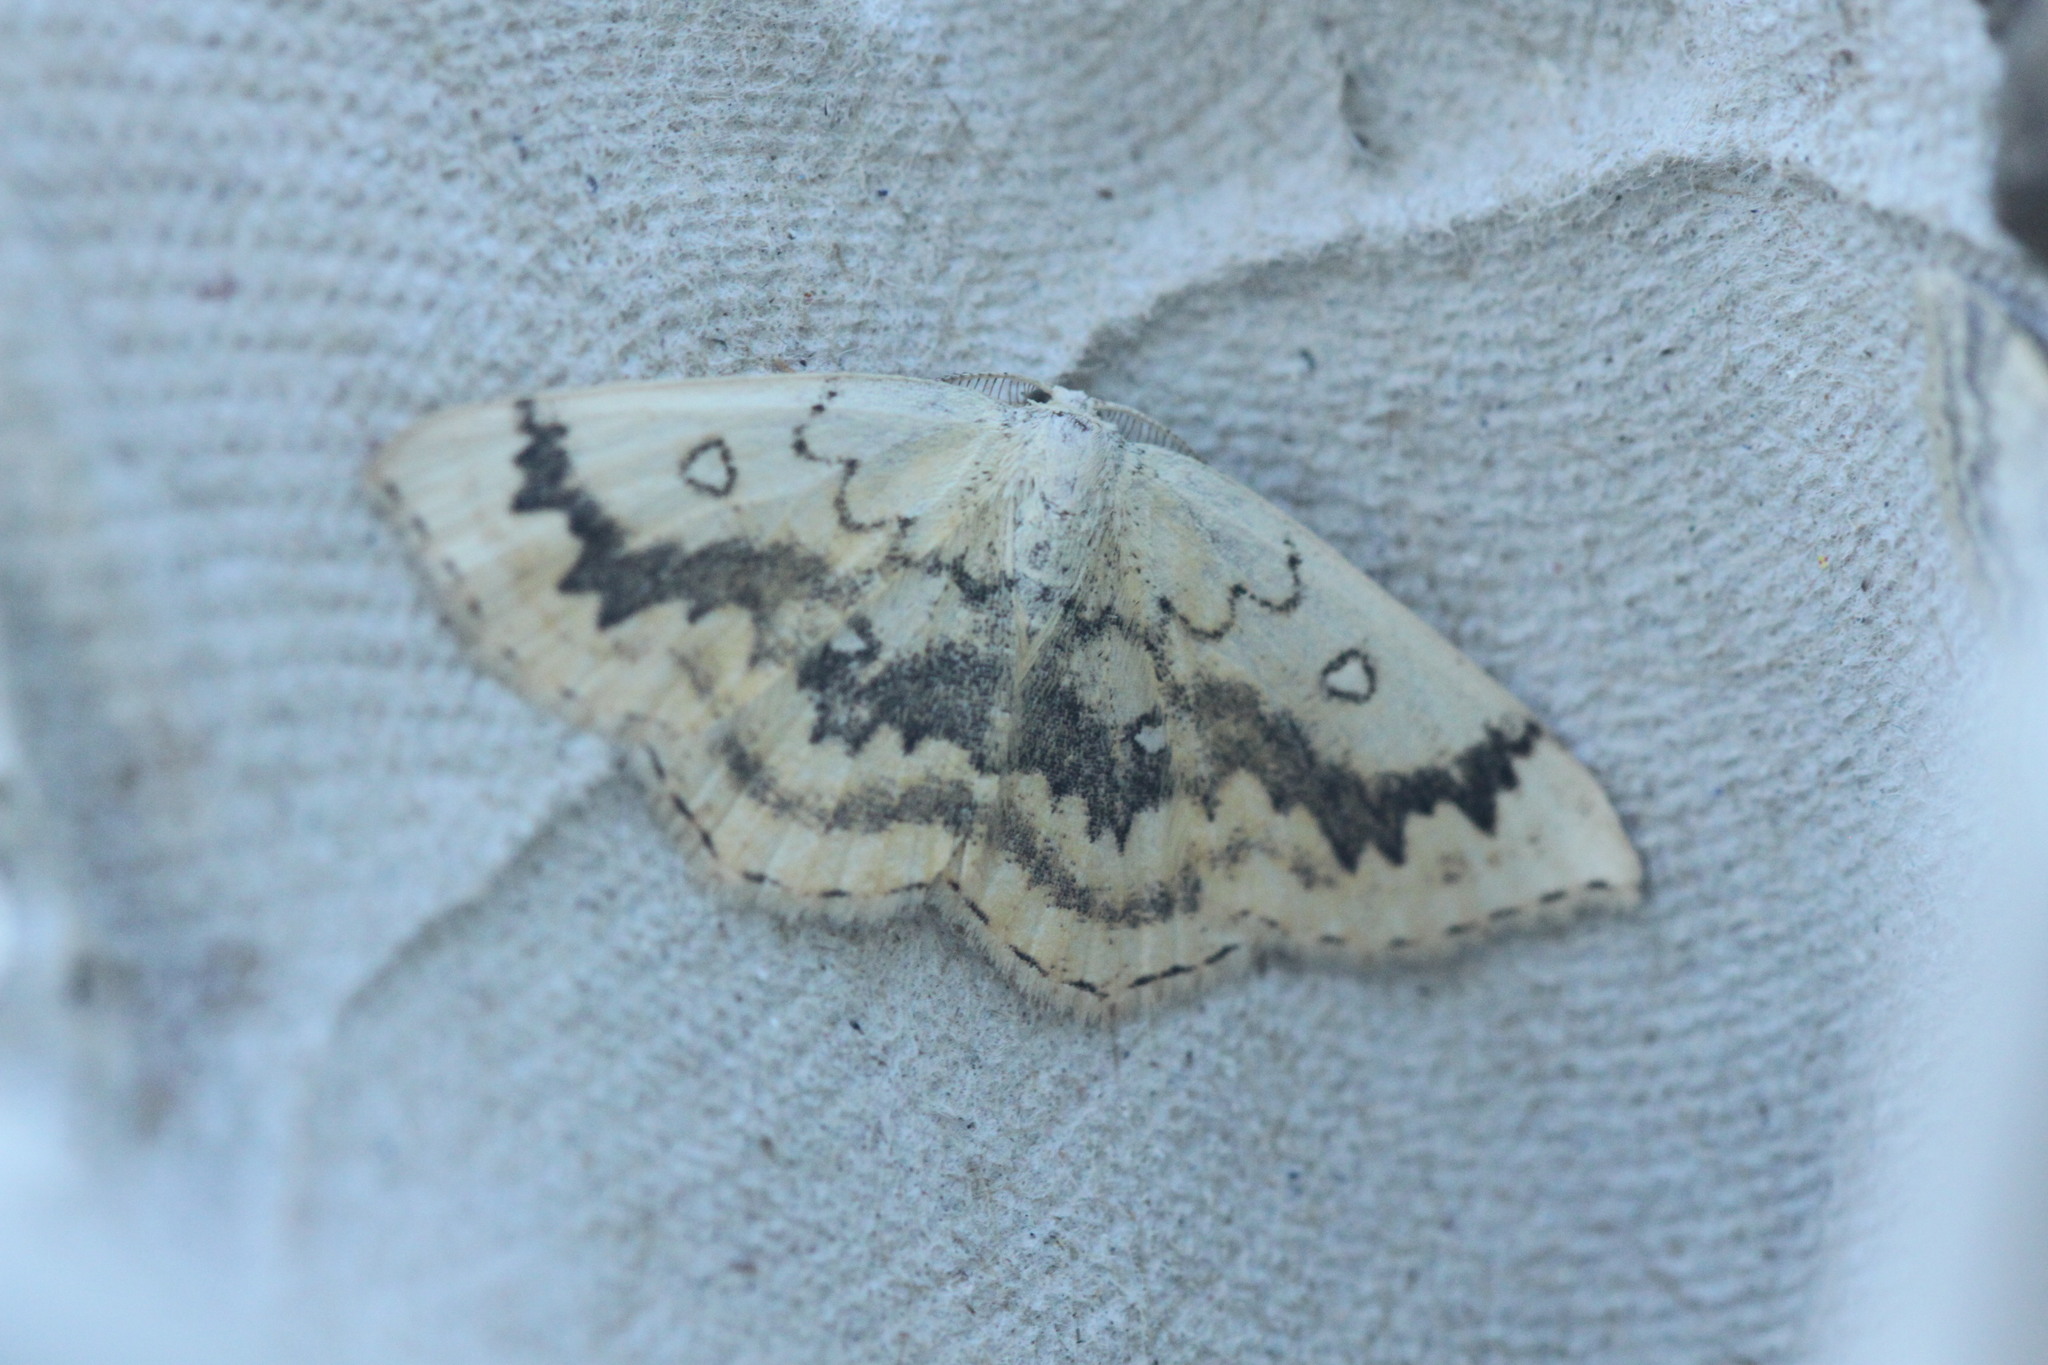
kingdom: Animalia
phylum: Arthropoda
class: Insecta
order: Lepidoptera
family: Geometridae
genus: Cyclophora
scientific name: Cyclophora annularia
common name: Mocha
